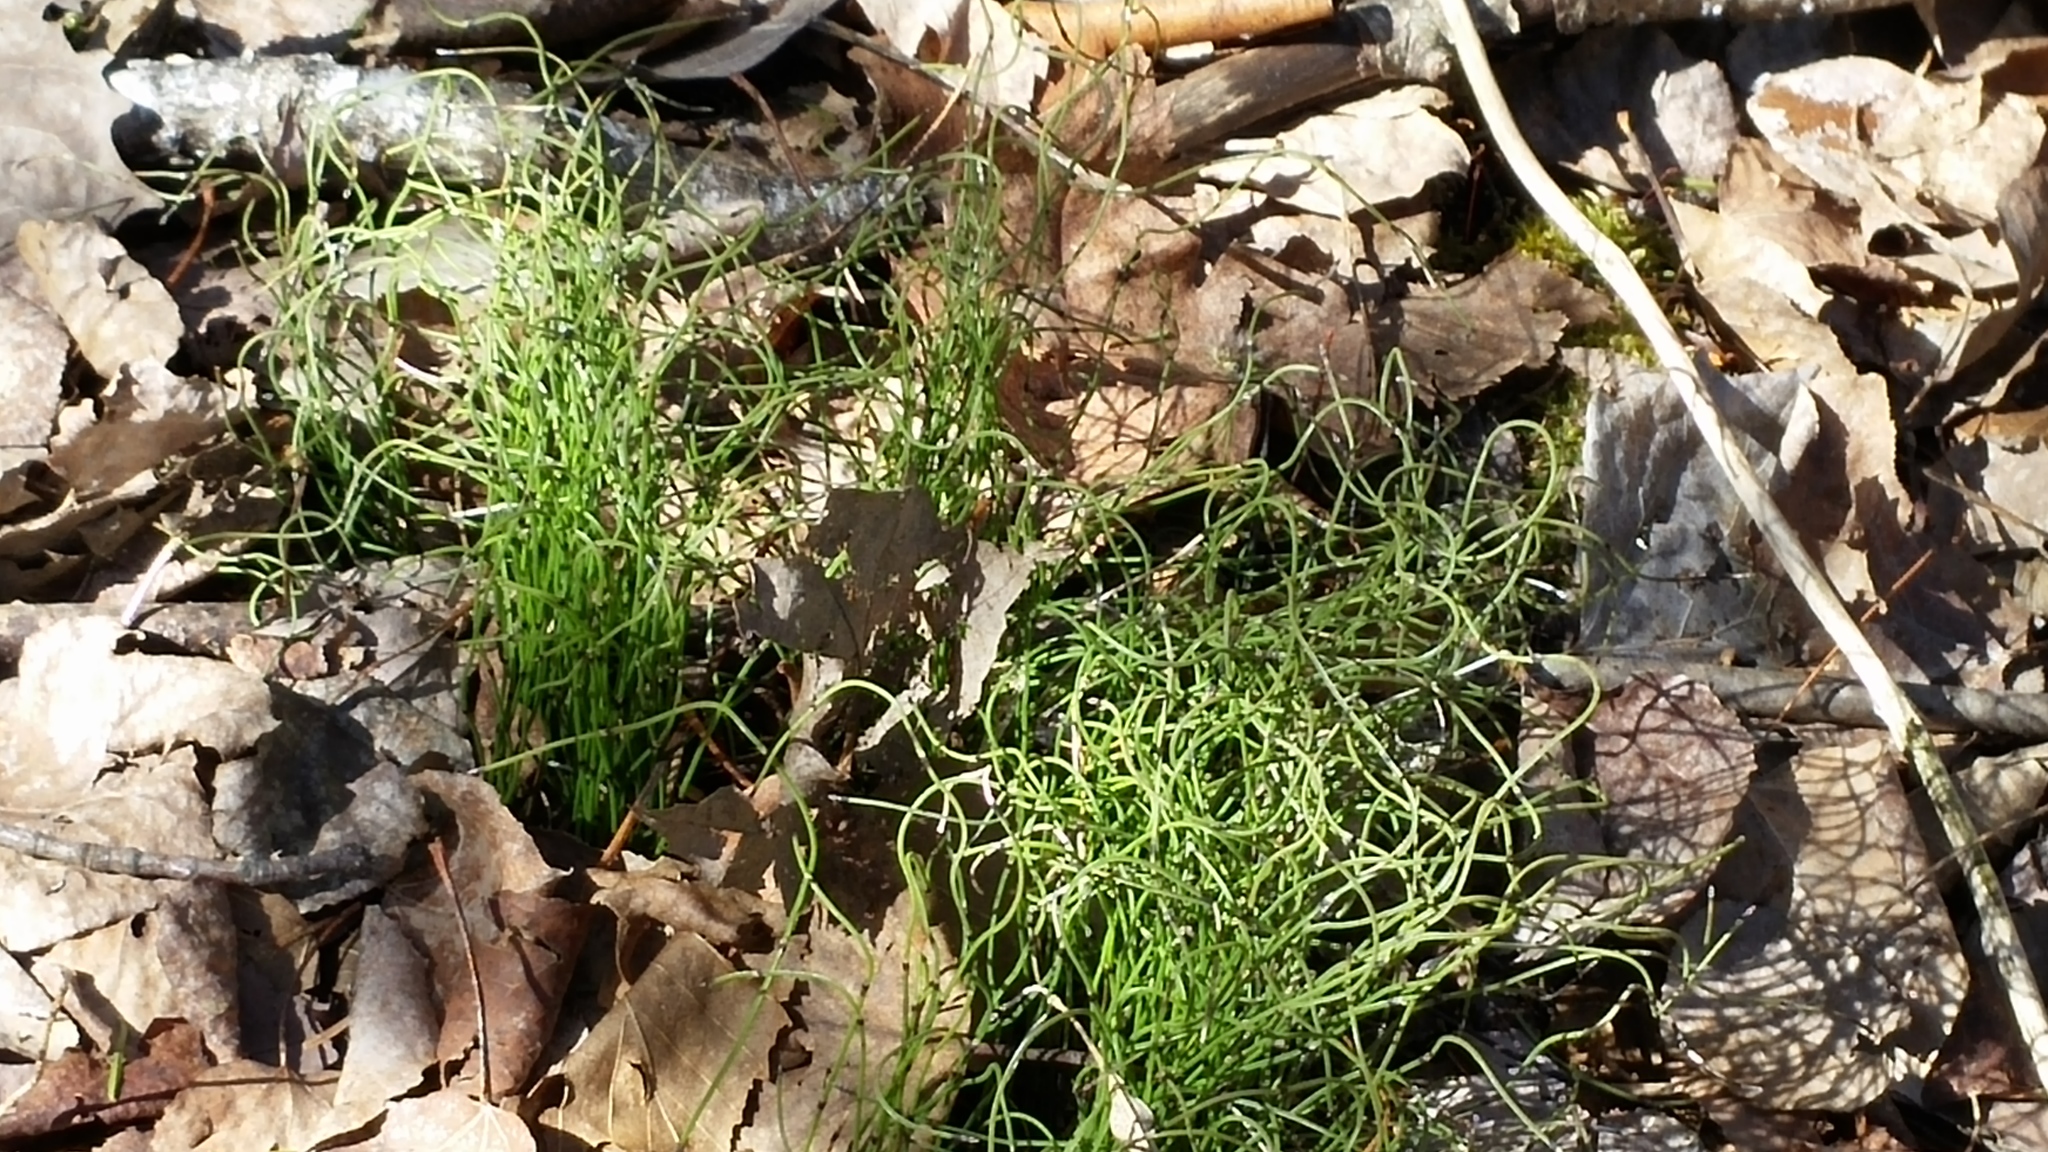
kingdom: Plantae
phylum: Tracheophyta
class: Polypodiopsida
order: Equisetales
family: Equisetaceae
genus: Equisetum
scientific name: Equisetum scirpoides
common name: Delicate horsetail
